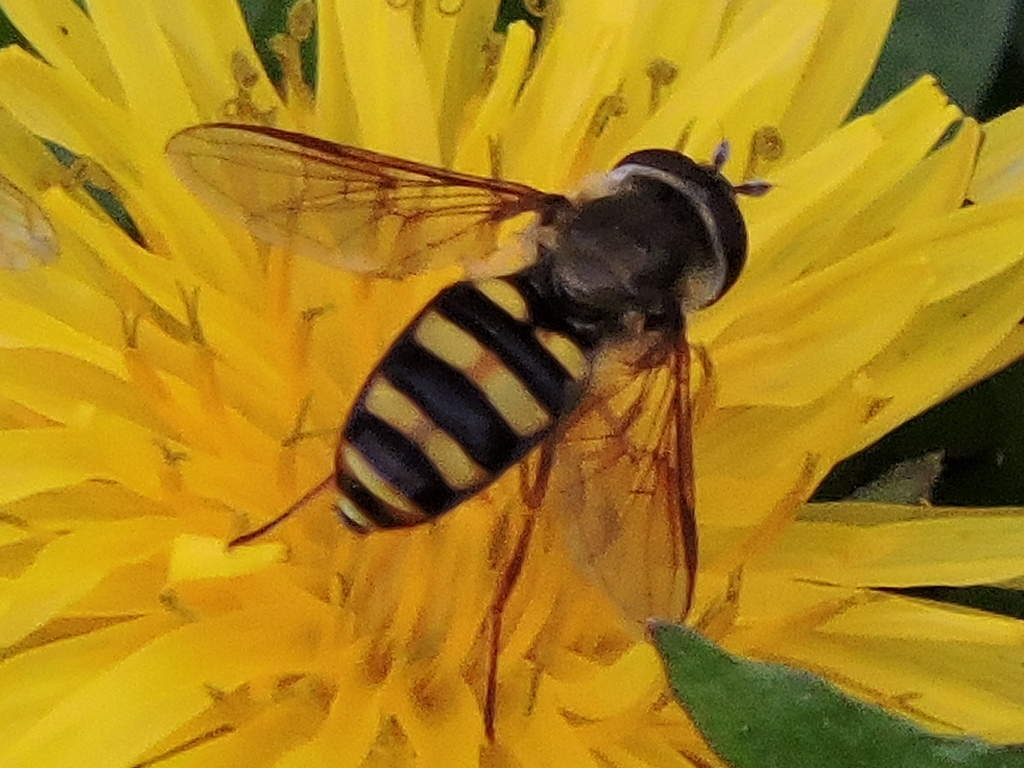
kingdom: Animalia
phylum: Arthropoda
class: Insecta
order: Diptera
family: Syrphidae
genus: Eupeodes
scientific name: Eupeodes
